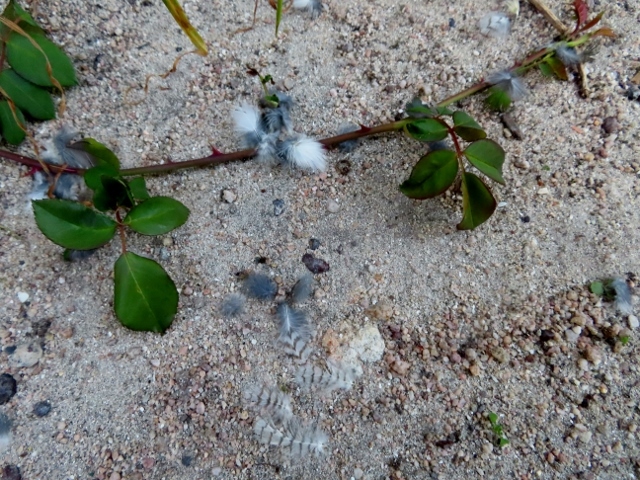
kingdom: Animalia
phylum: Chordata
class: Aves
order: Cuculiformes
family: Cuculidae
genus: Chrysococcyx
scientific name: Chrysococcyx klaas
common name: Klaas's cuckoo
